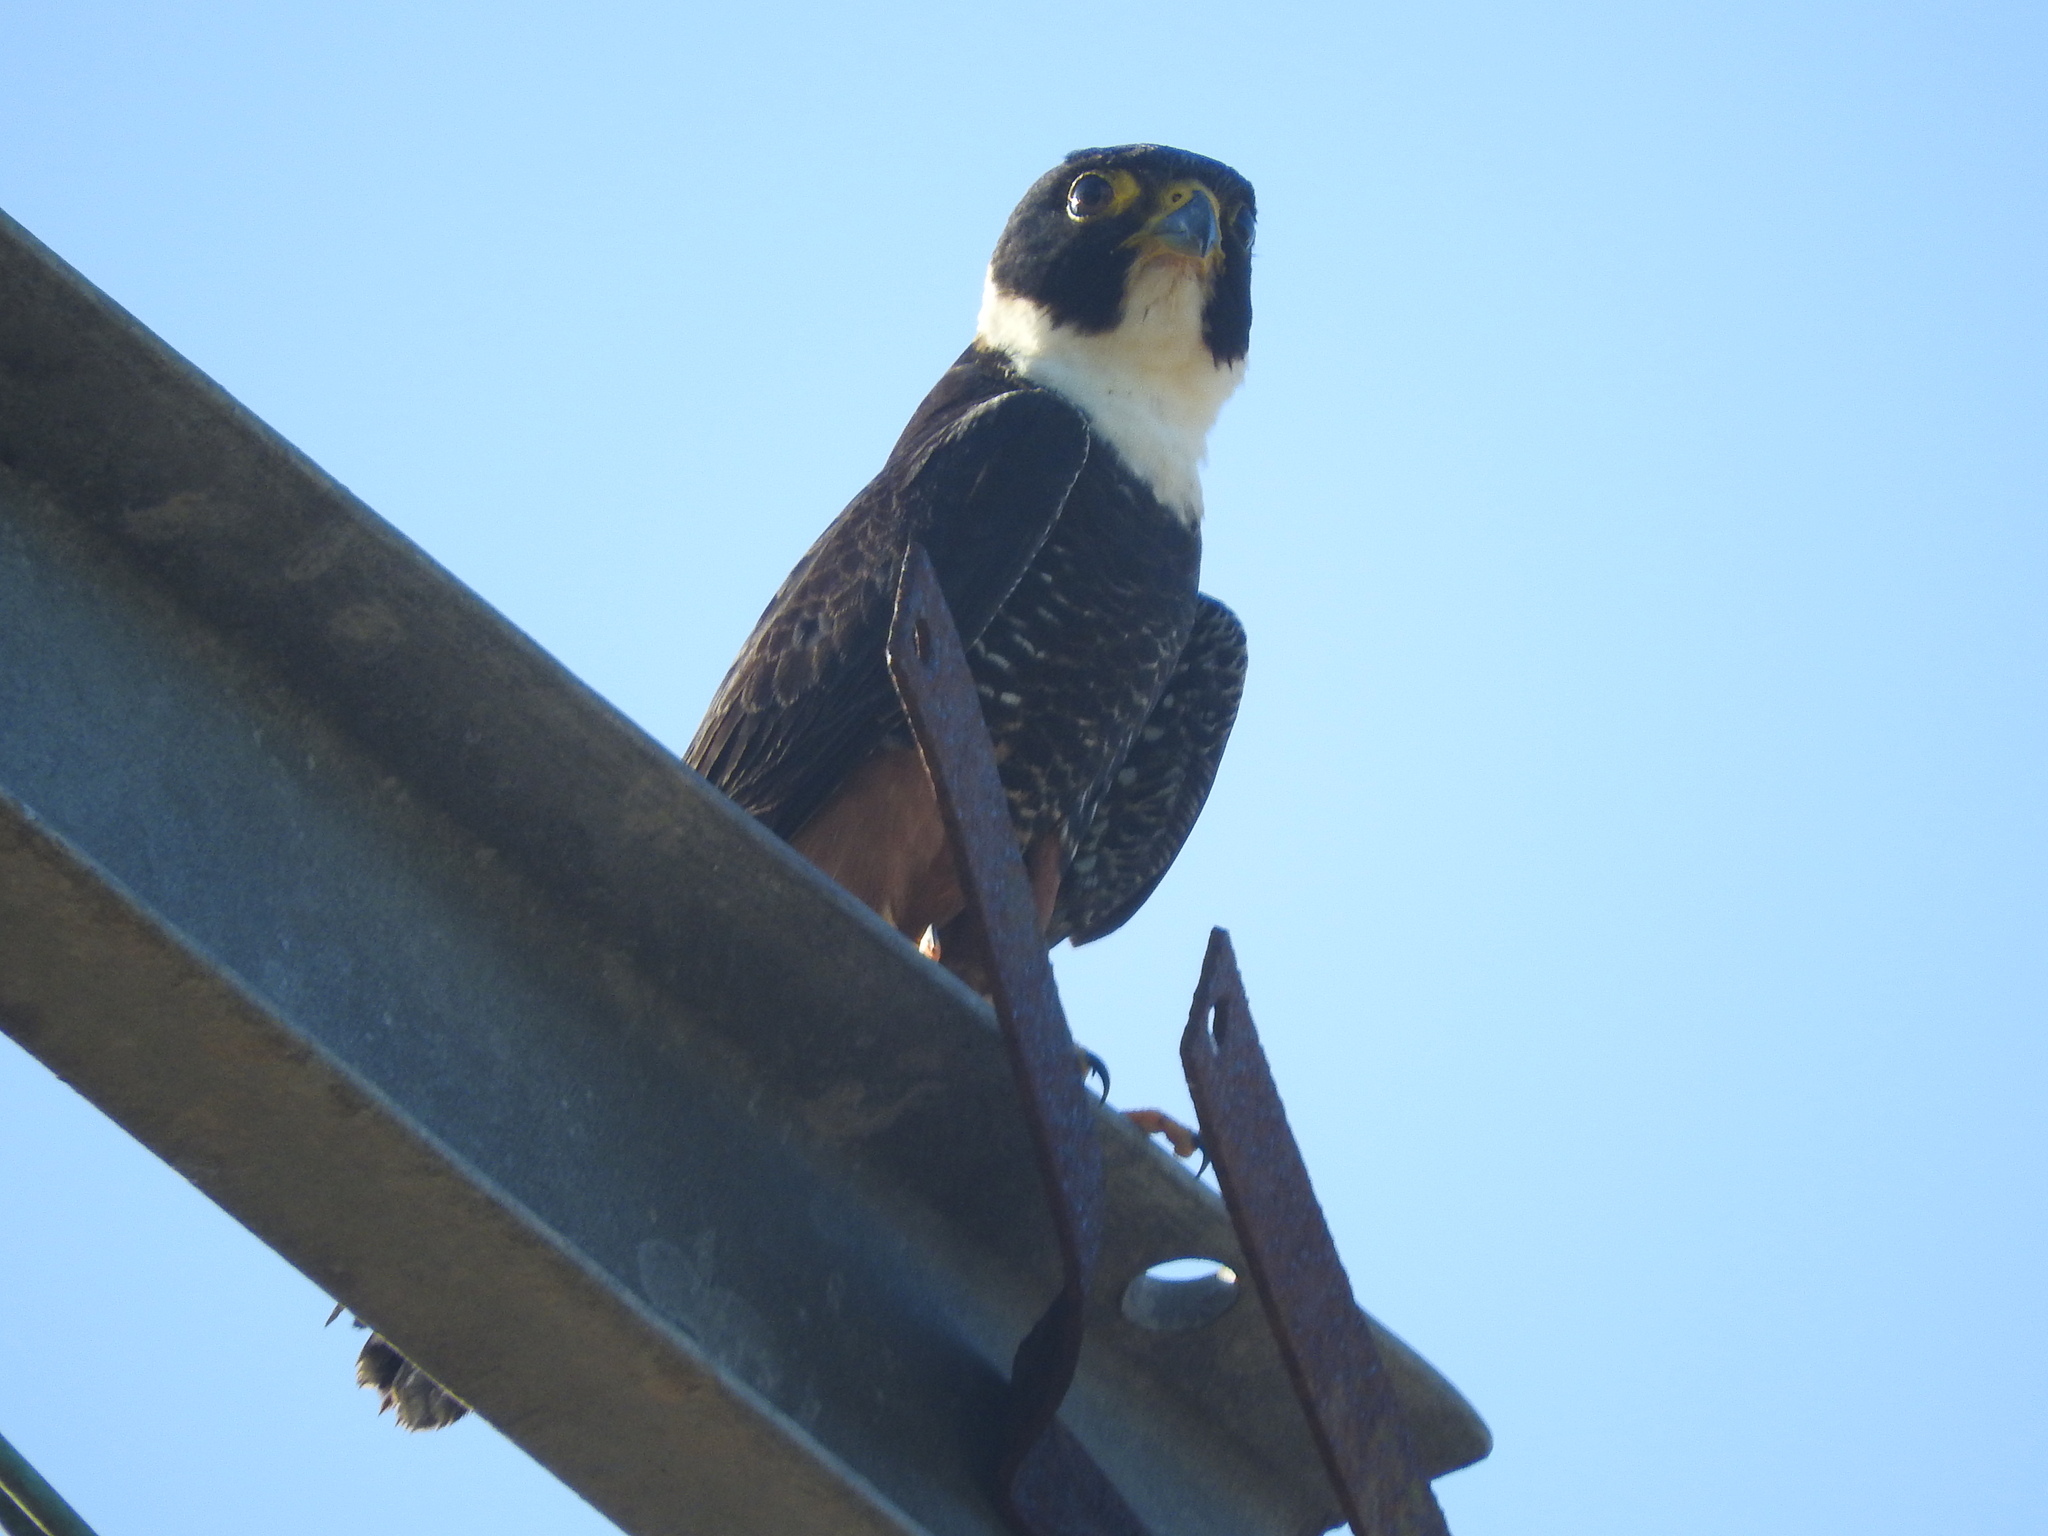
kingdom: Animalia
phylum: Chordata
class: Aves
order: Falconiformes
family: Falconidae
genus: Falco
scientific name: Falco rufigularis
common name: Bat falcon
